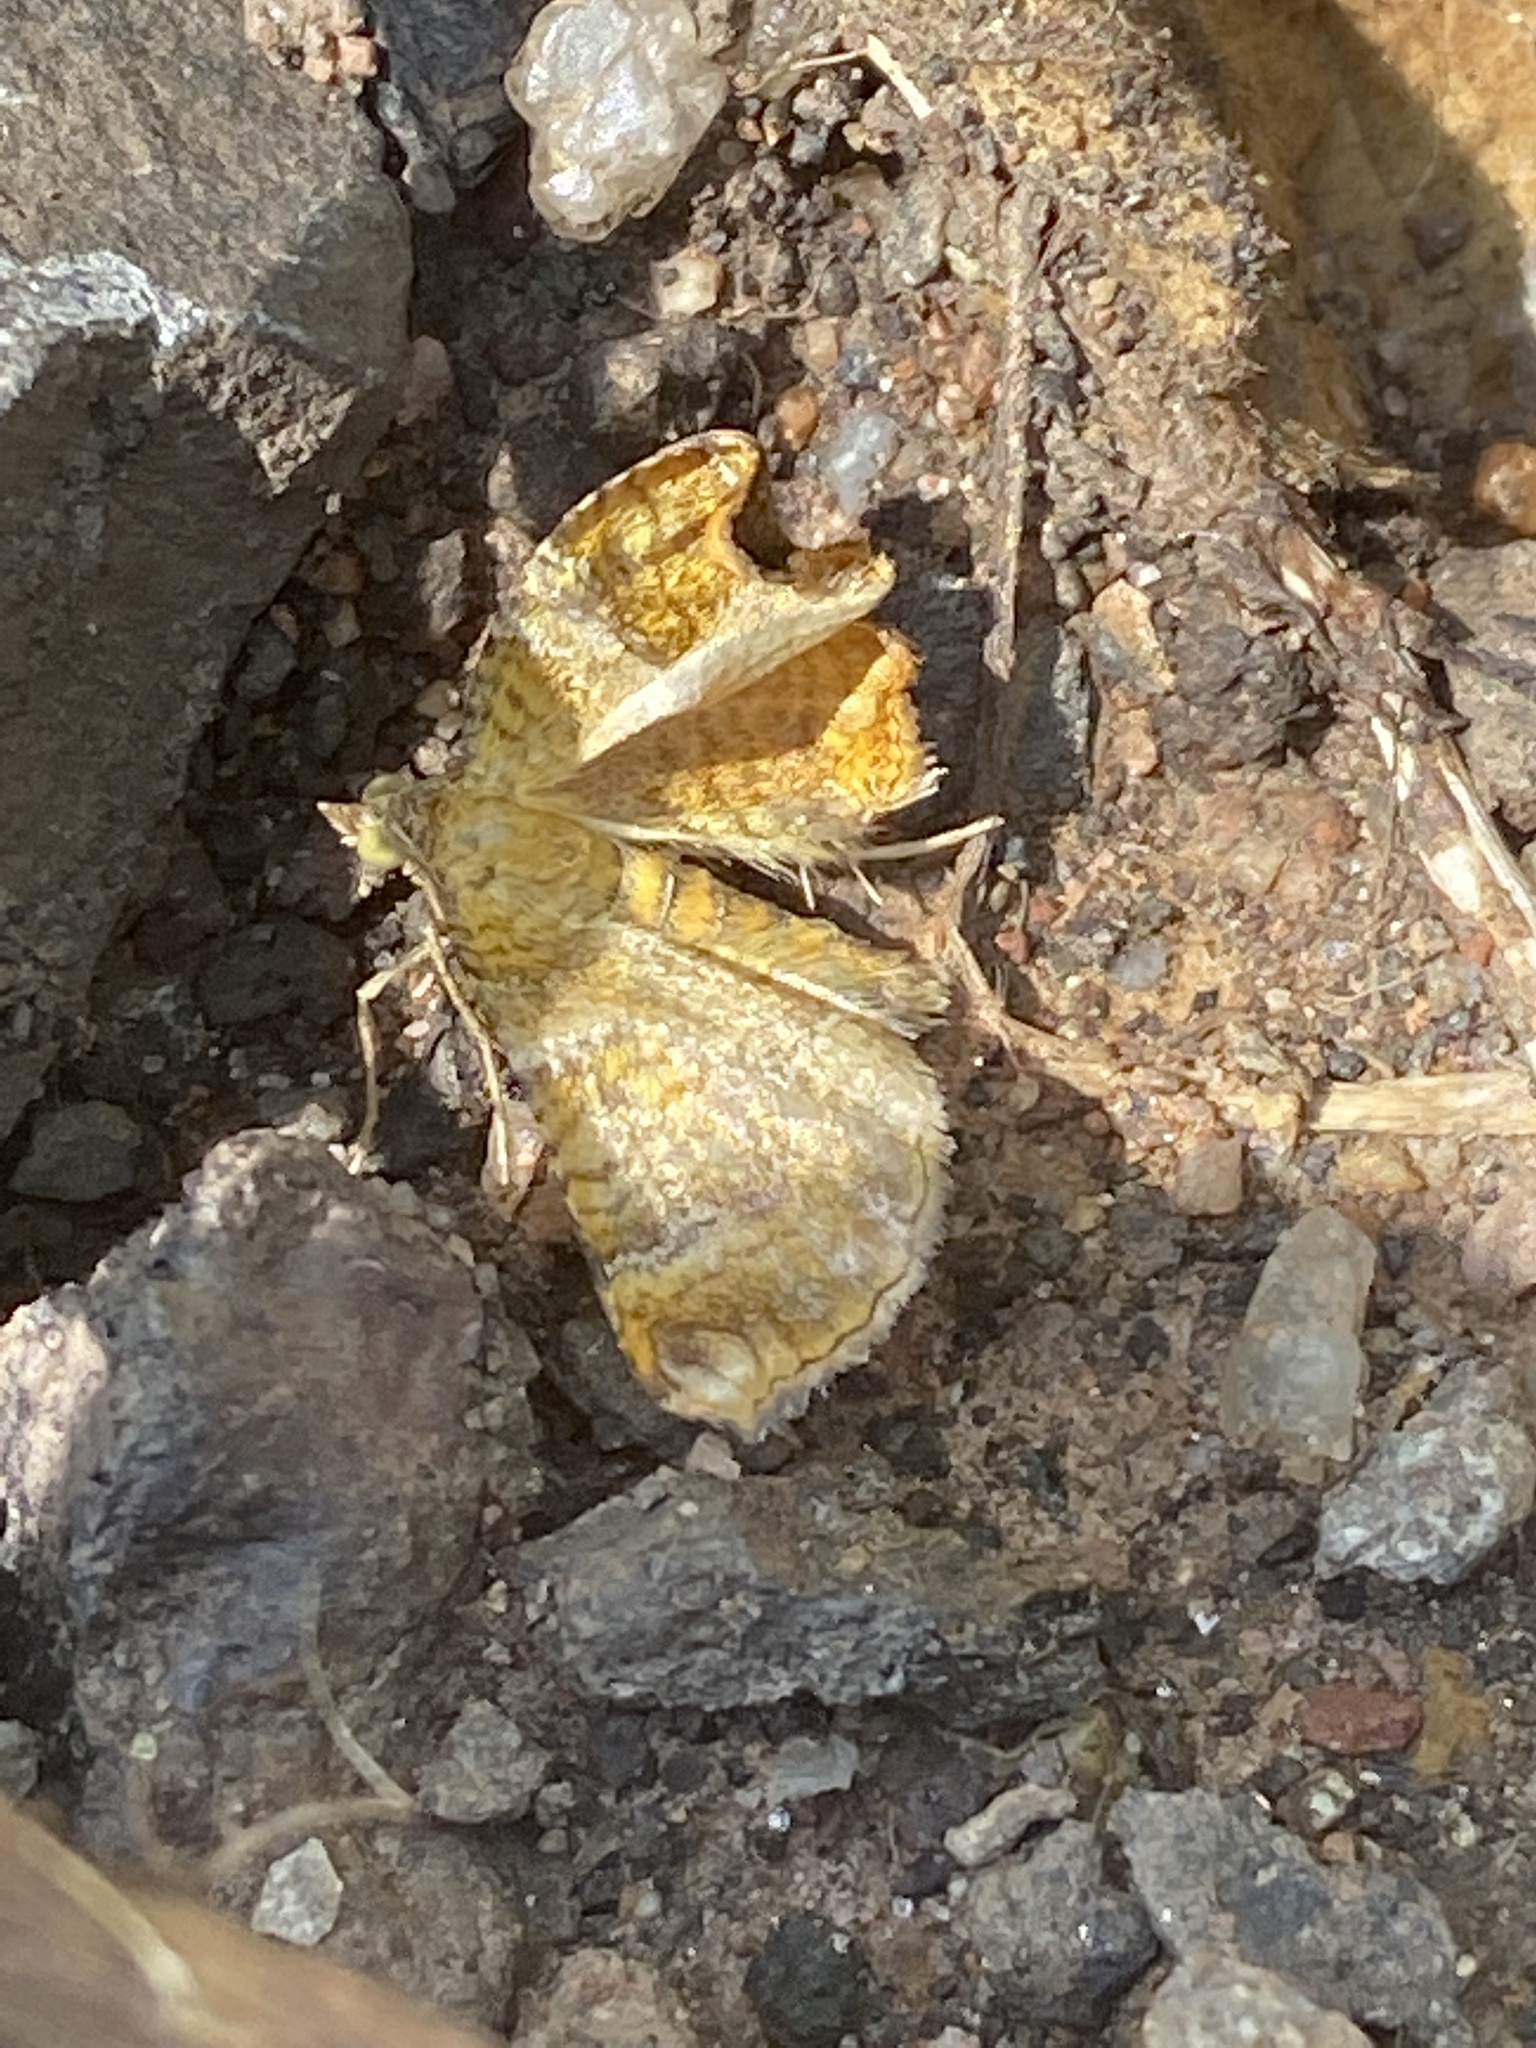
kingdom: Animalia
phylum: Arthropoda
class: Insecta
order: Lepidoptera
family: Geometridae
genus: Camptogramma
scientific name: Camptogramma bilineata
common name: Yellow shell
